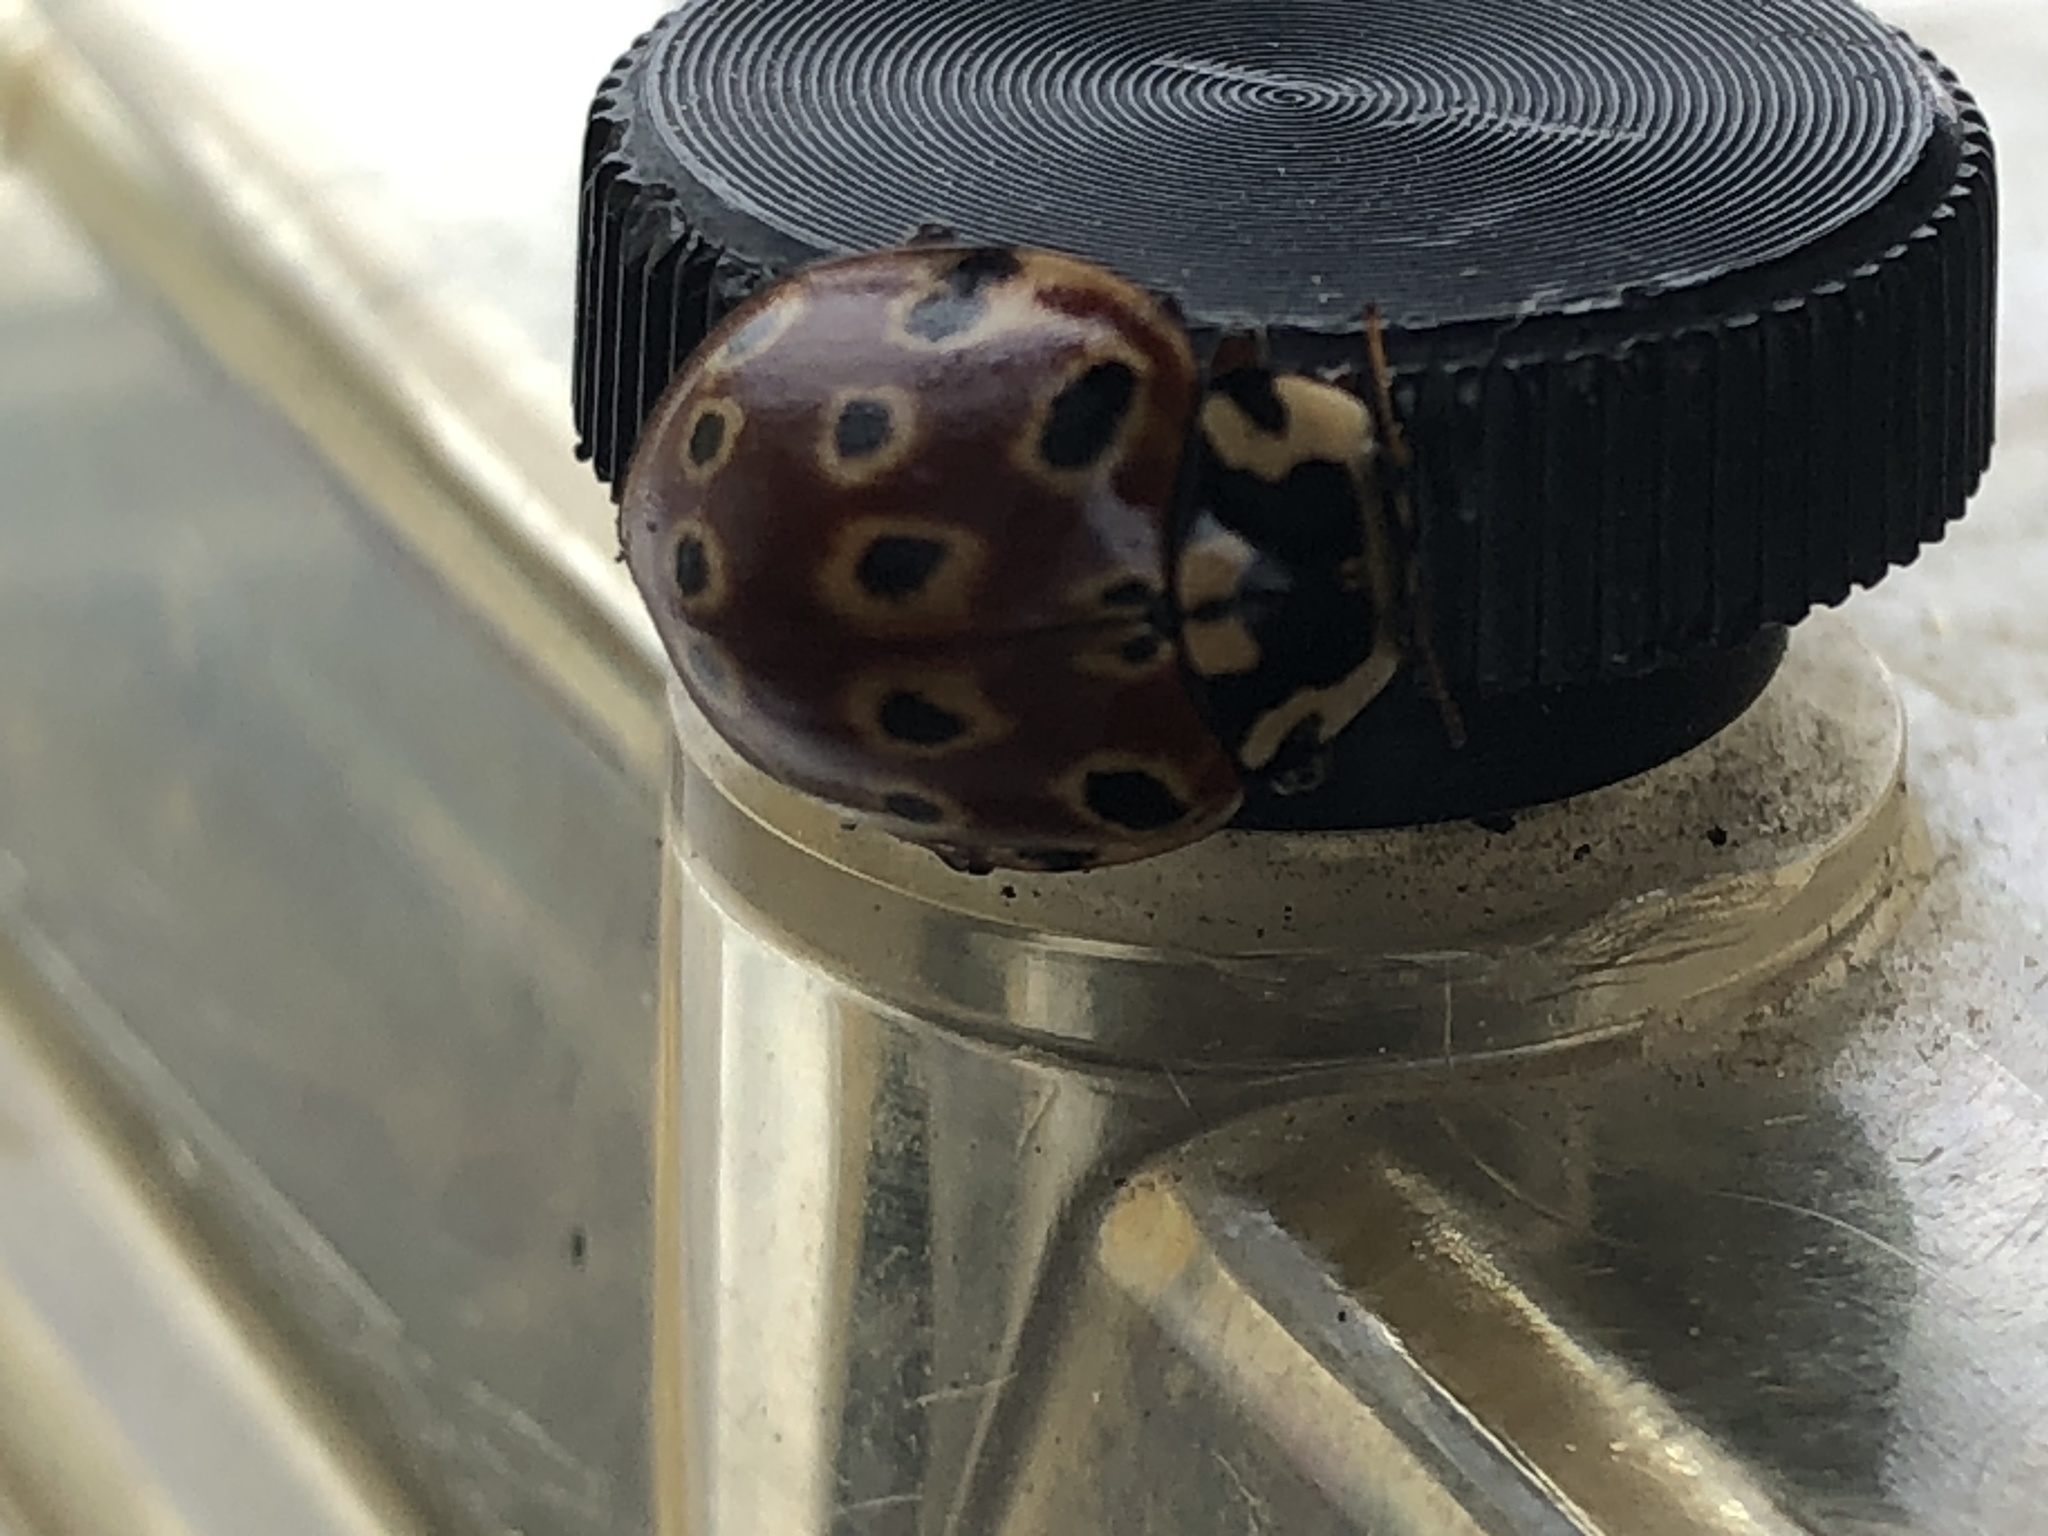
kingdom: Animalia
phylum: Arthropoda
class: Insecta
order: Coleoptera
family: Coccinellidae
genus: Anatis
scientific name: Anatis mali
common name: Eye-spotted lady beetle
